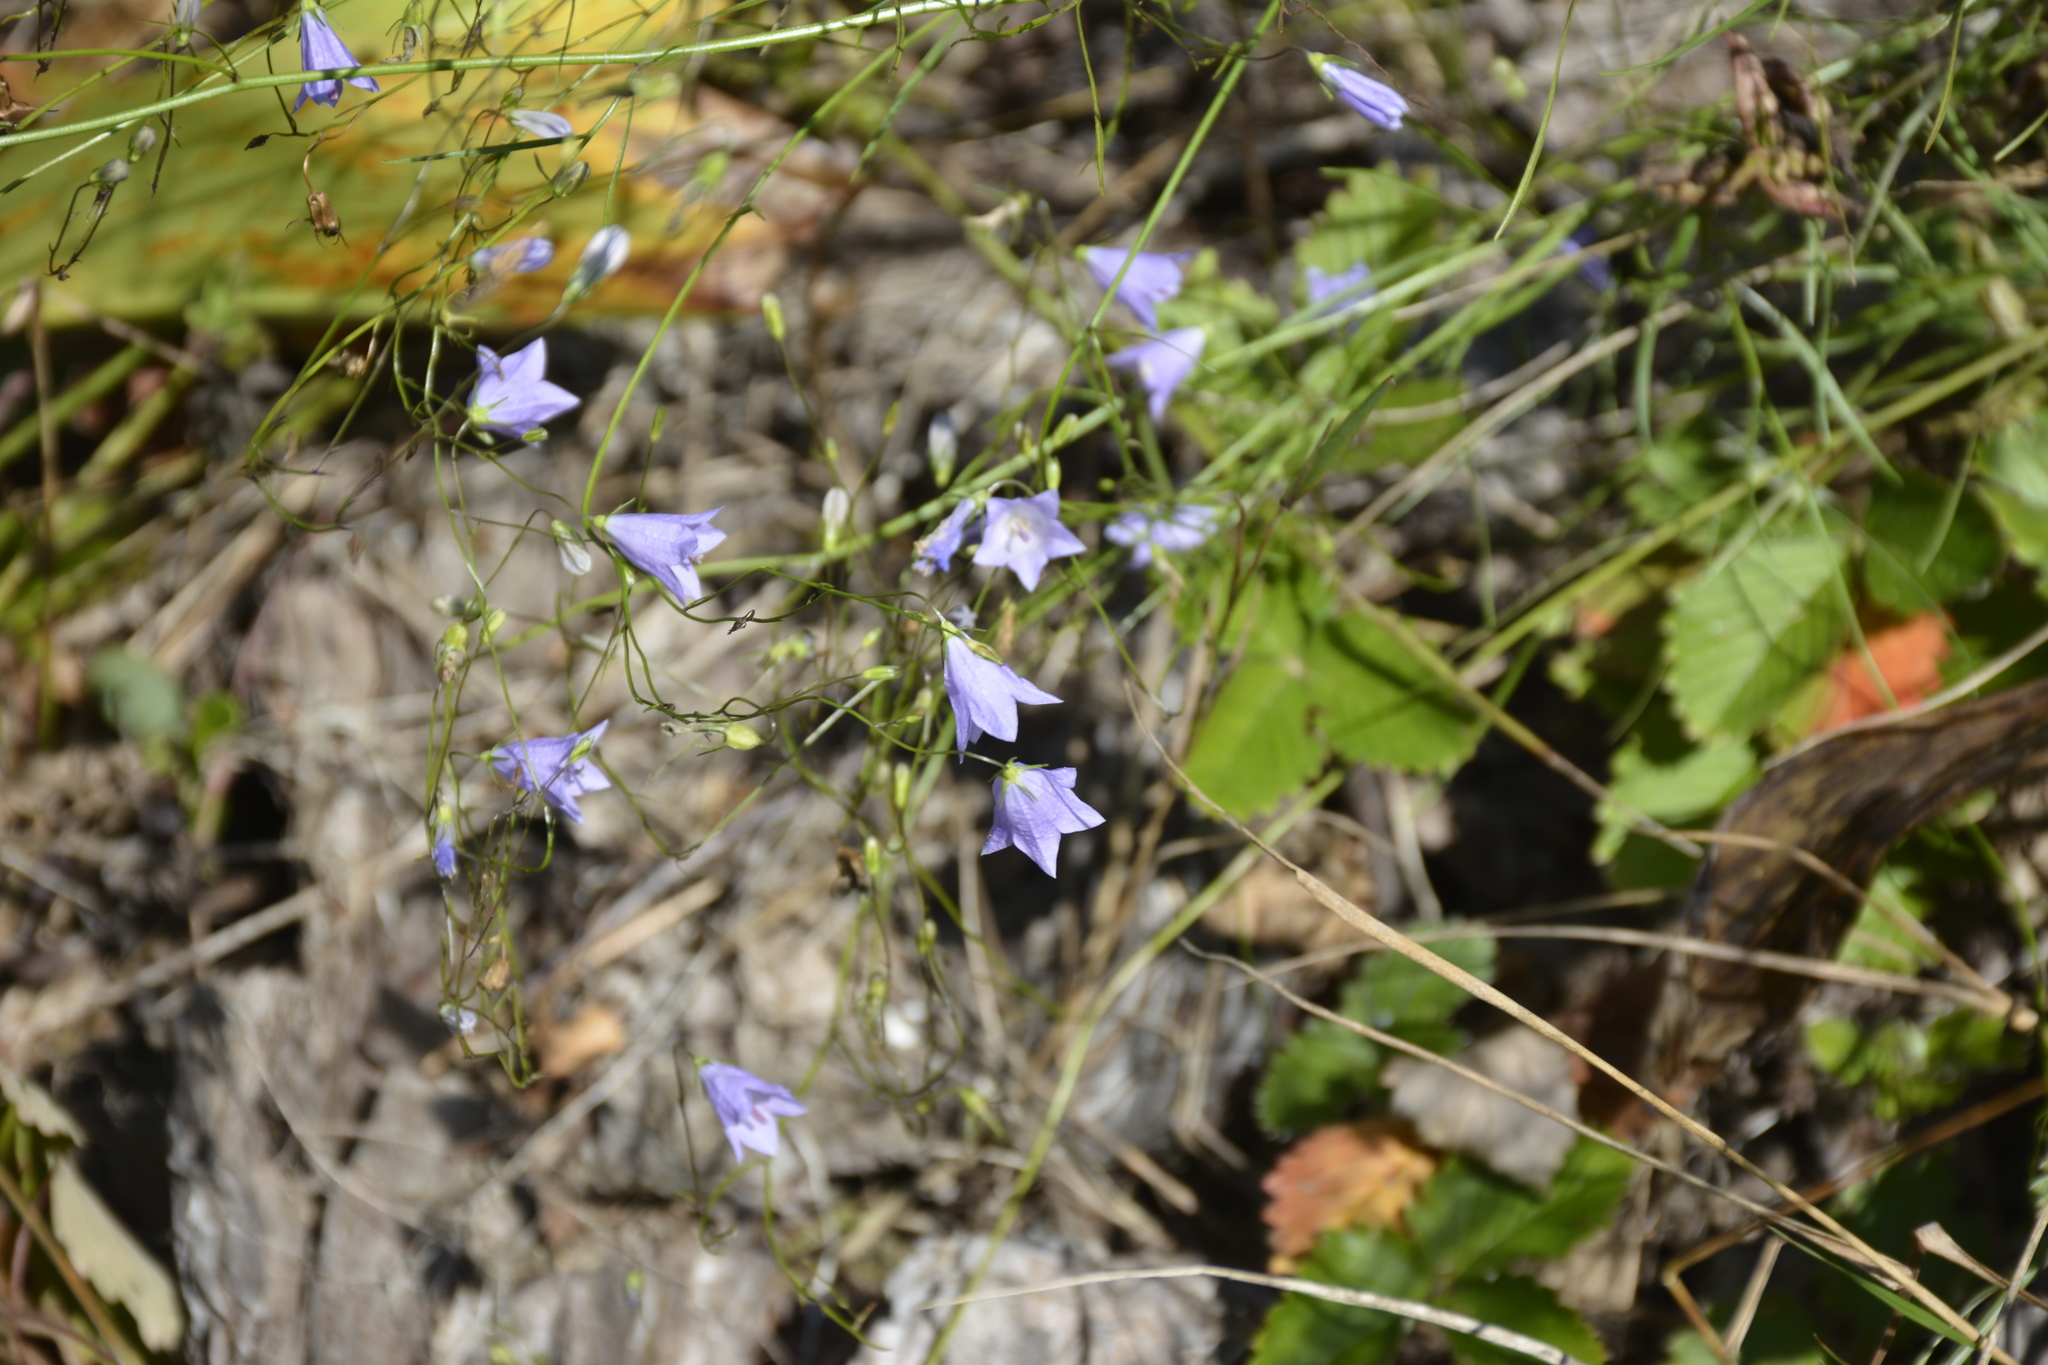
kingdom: Plantae
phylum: Tracheophyta
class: Magnoliopsida
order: Asterales
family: Campanulaceae
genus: Campanula
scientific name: Campanula rotundifolia
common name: Harebell
